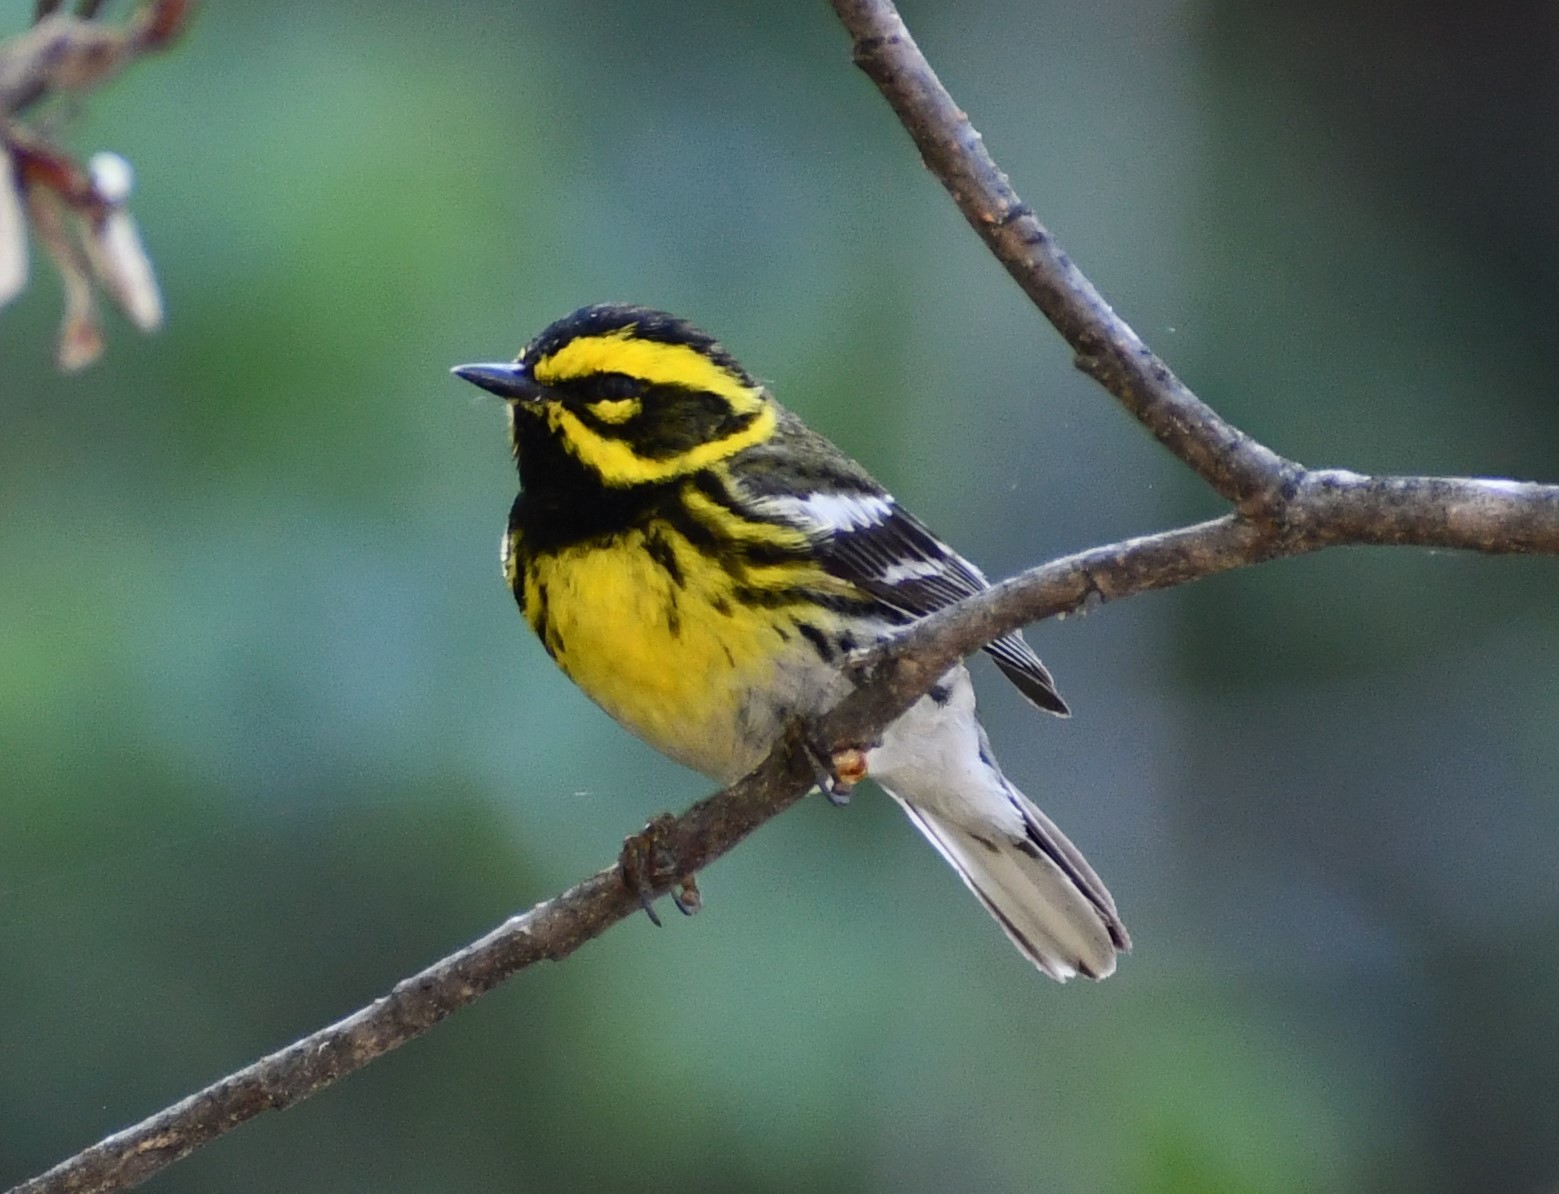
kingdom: Animalia
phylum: Chordata
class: Aves
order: Passeriformes
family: Parulidae
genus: Setophaga
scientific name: Setophaga townsendi
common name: Townsend's warbler
